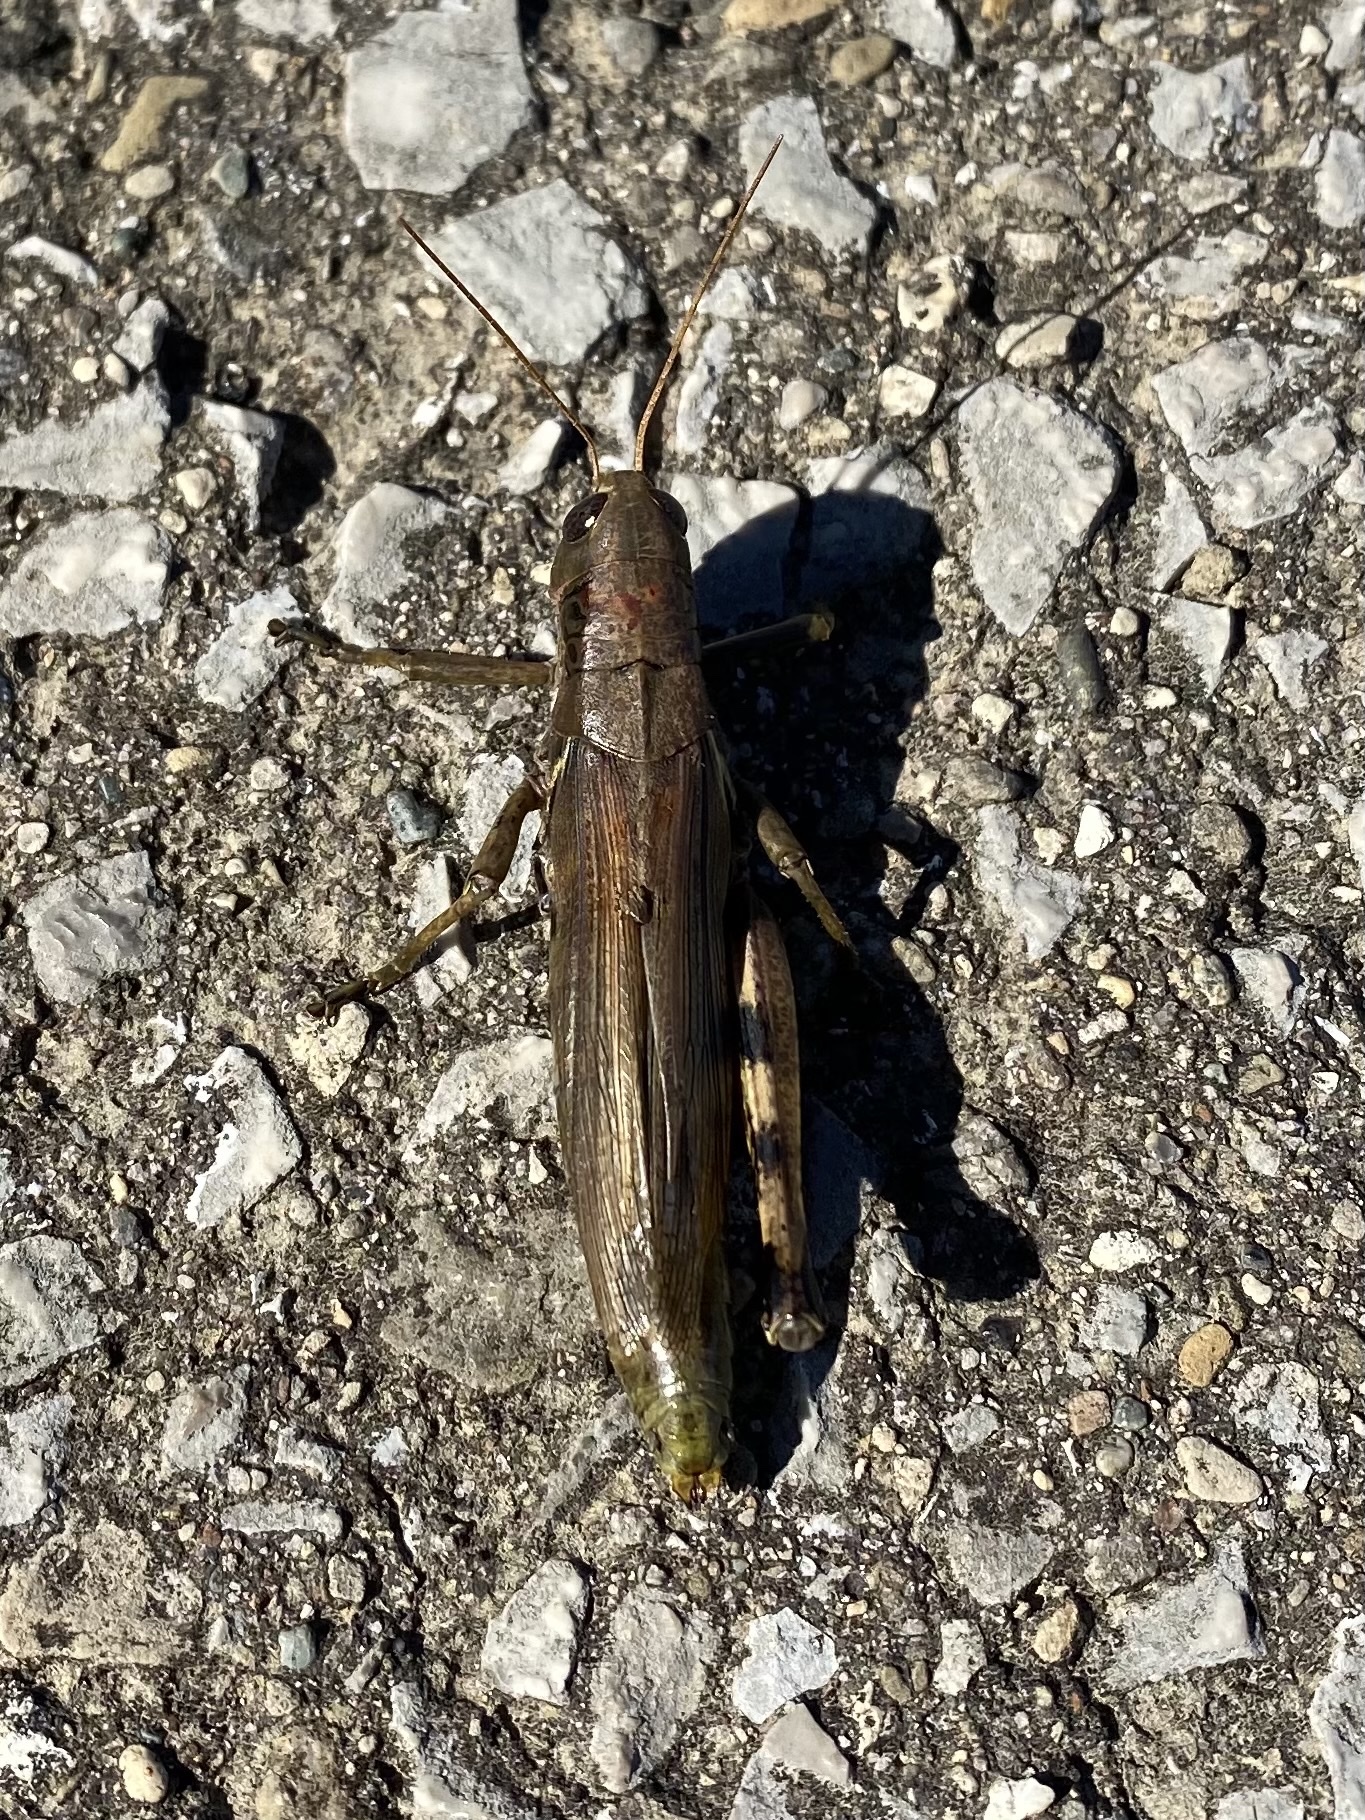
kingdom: Animalia
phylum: Arthropoda
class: Insecta
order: Orthoptera
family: Acrididae
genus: Melanoplus
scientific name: Melanoplus differentialis
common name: Differential grasshopper
